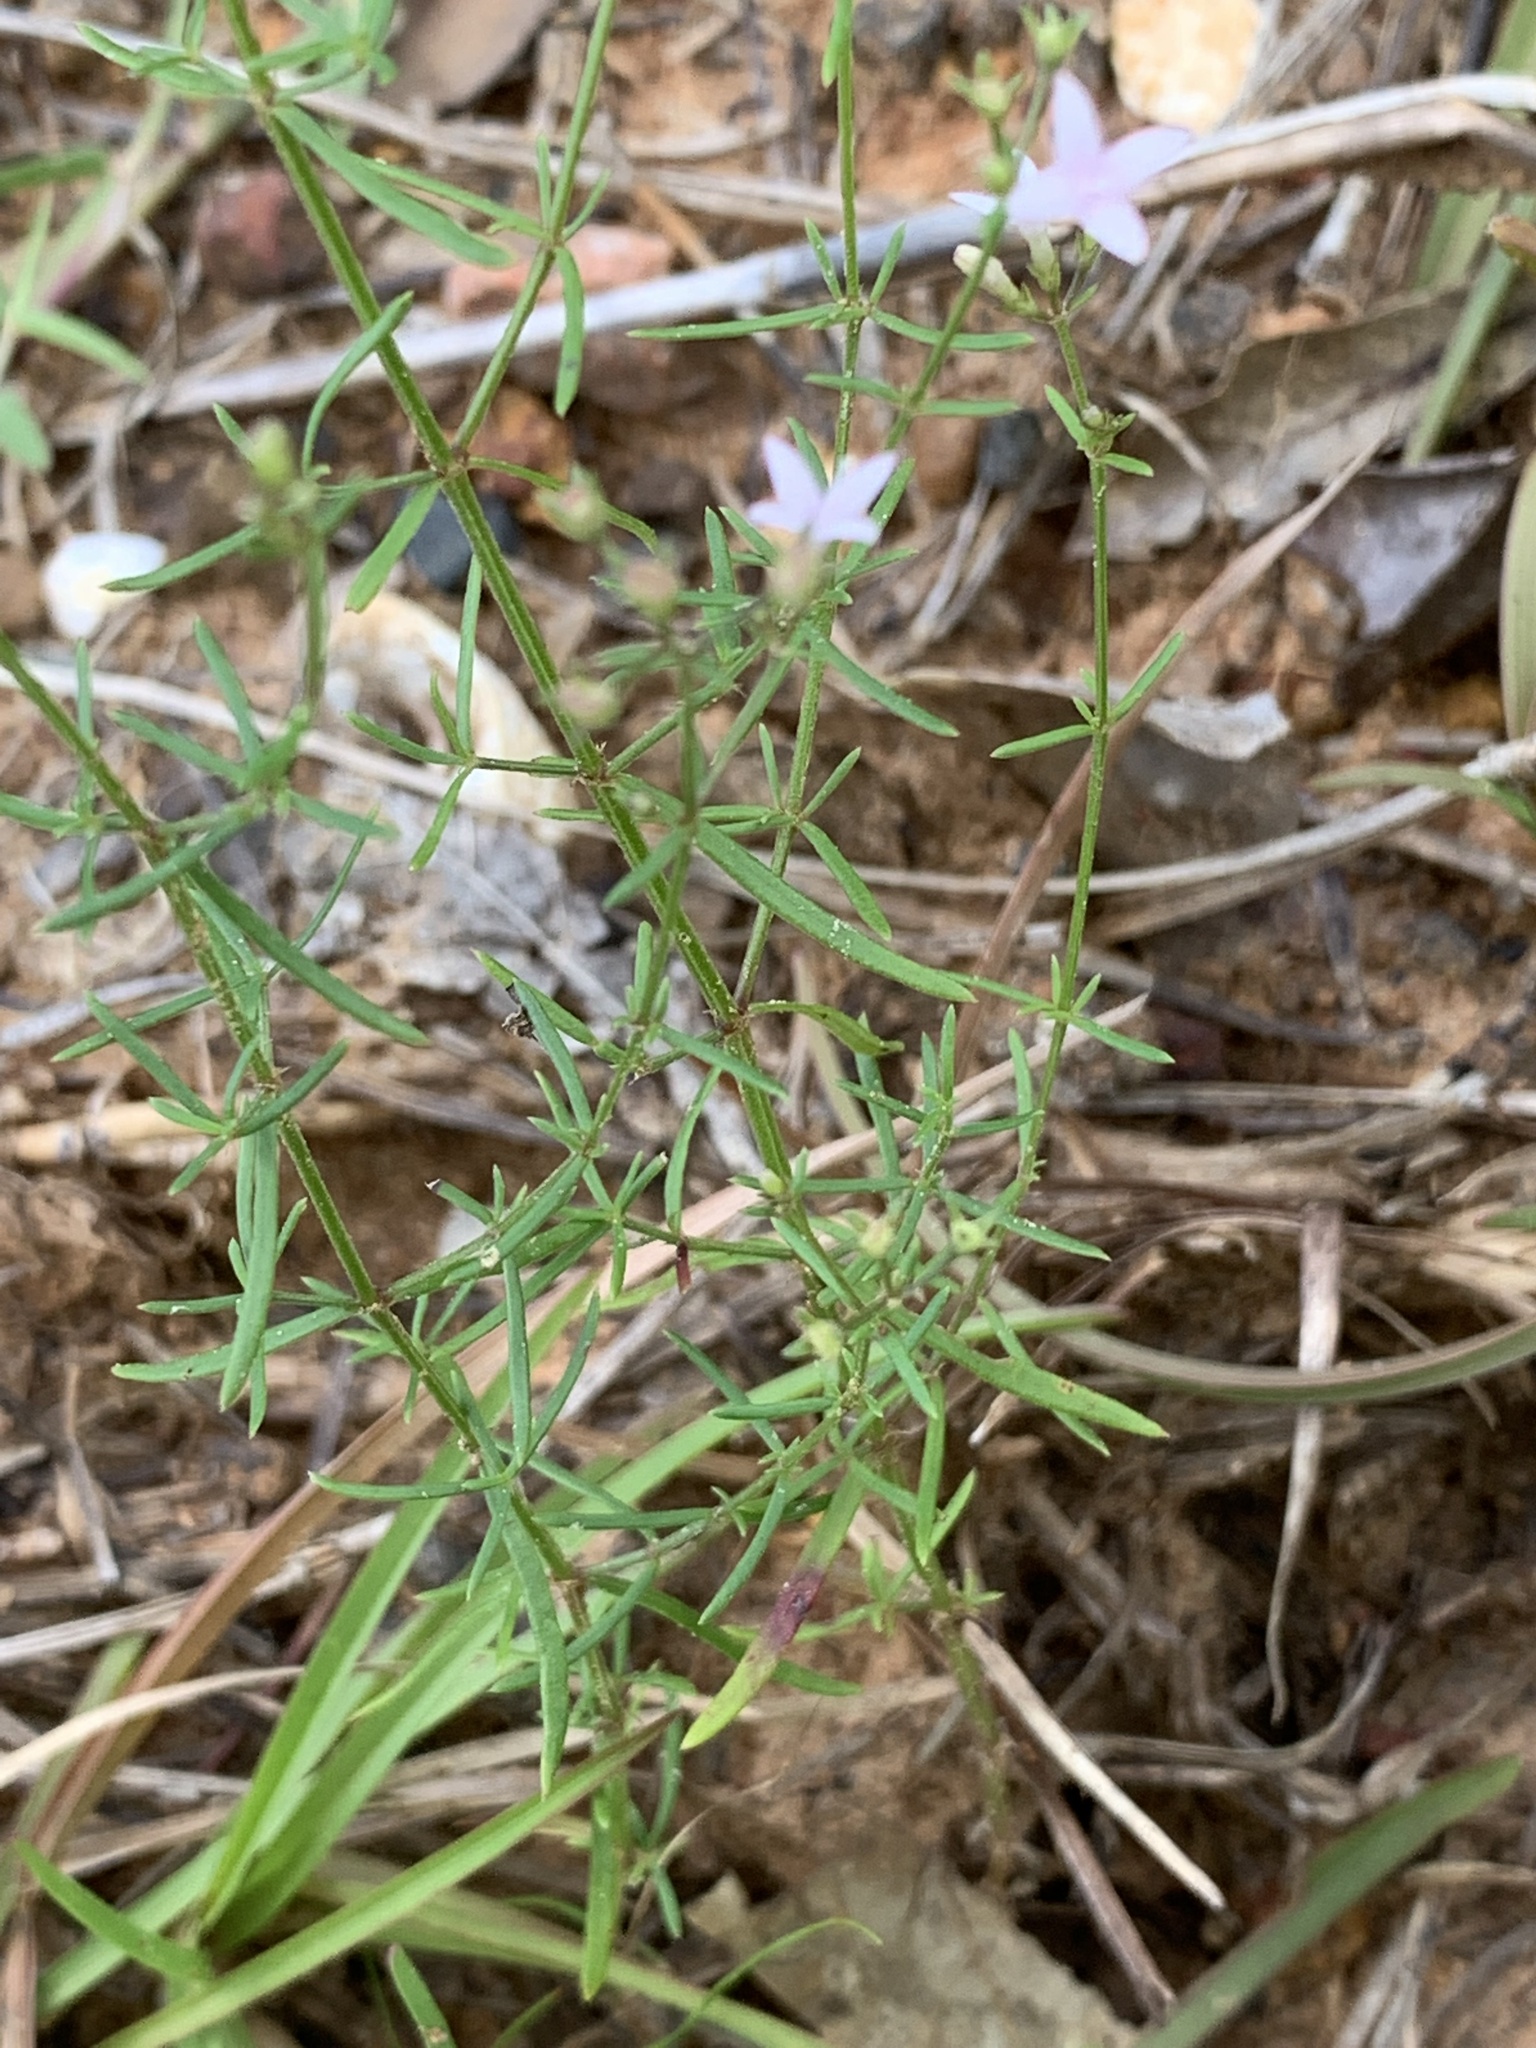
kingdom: Plantae
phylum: Tracheophyta
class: Magnoliopsida
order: Gentianales
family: Rubiaceae
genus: Stenaria
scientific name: Stenaria nigricans
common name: Diamondflowers
